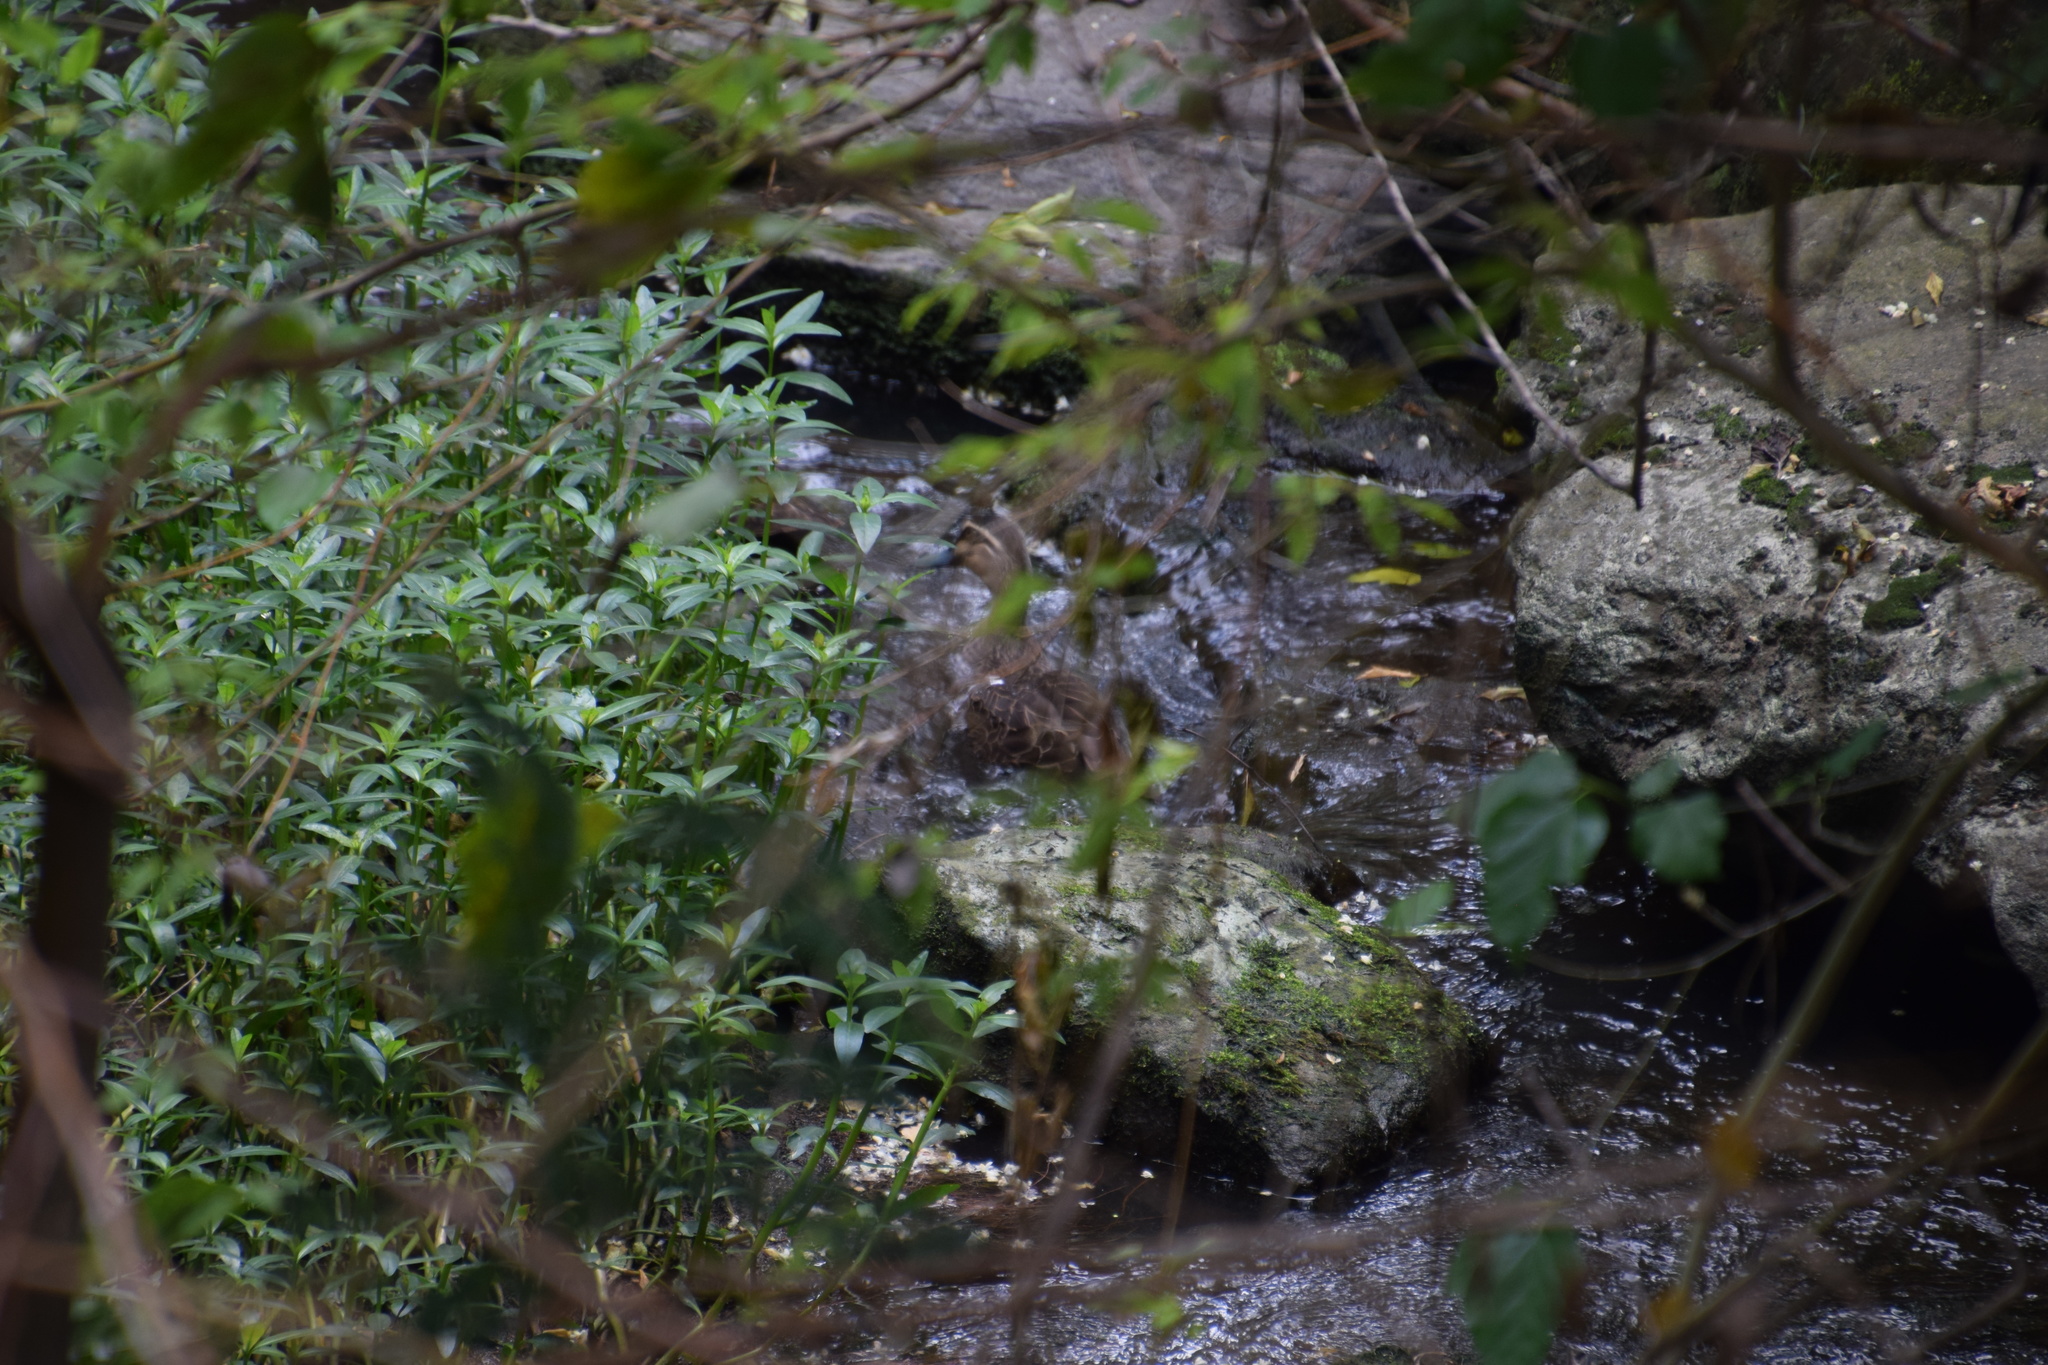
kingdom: Animalia
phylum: Chordata
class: Aves
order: Anseriformes
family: Anatidae
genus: Anas
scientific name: Anas superciliosa
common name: Pacific black duck
